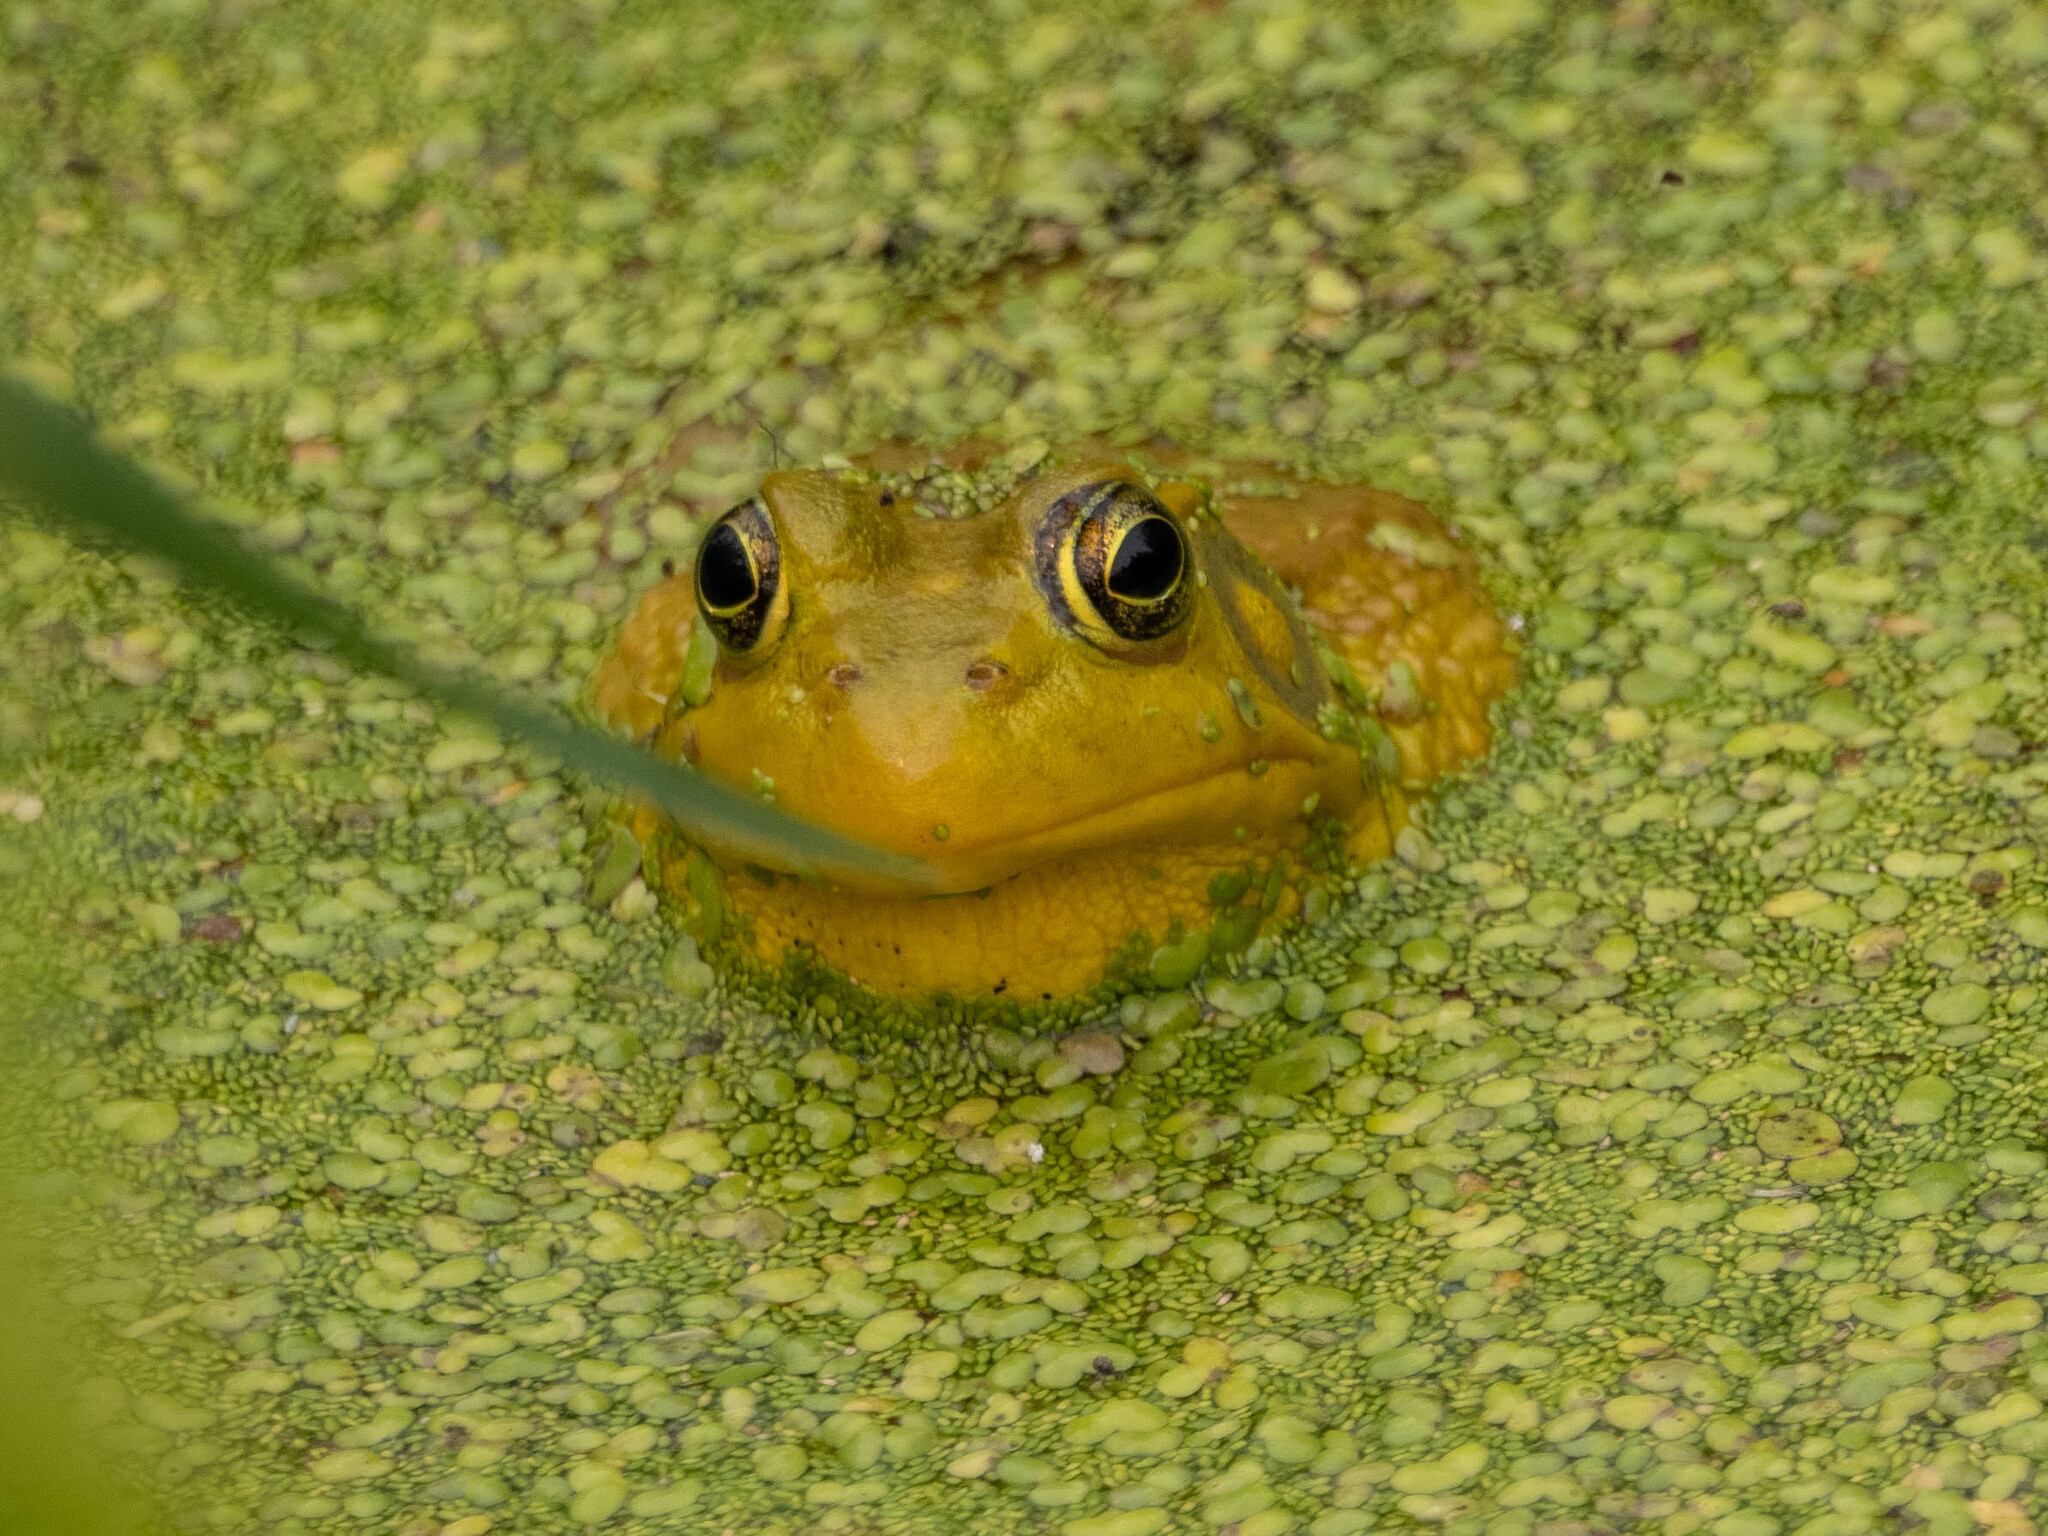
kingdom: Animalia
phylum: Chordata
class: Amphibia
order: Anura
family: Ranidae
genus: Lithobates
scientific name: Lithobates clamitans
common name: Green frog
